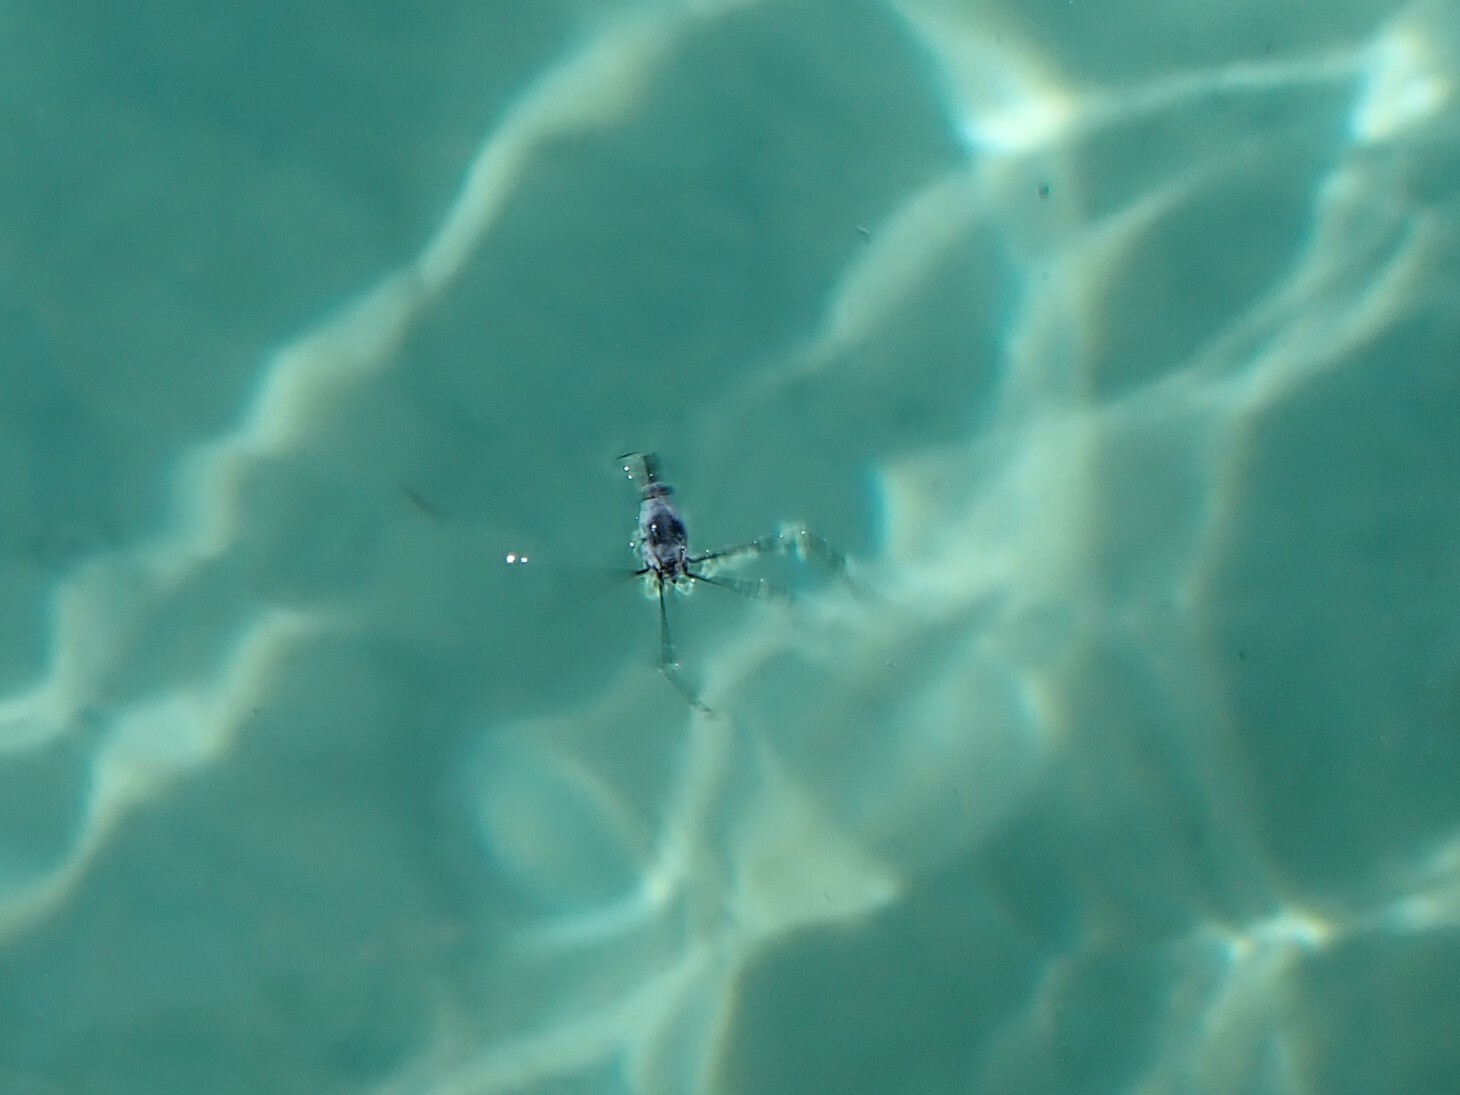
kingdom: Animalia
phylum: Arthropoda
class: Insecta
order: Hemiptera
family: Gerridae
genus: Halobates
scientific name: Halobates
